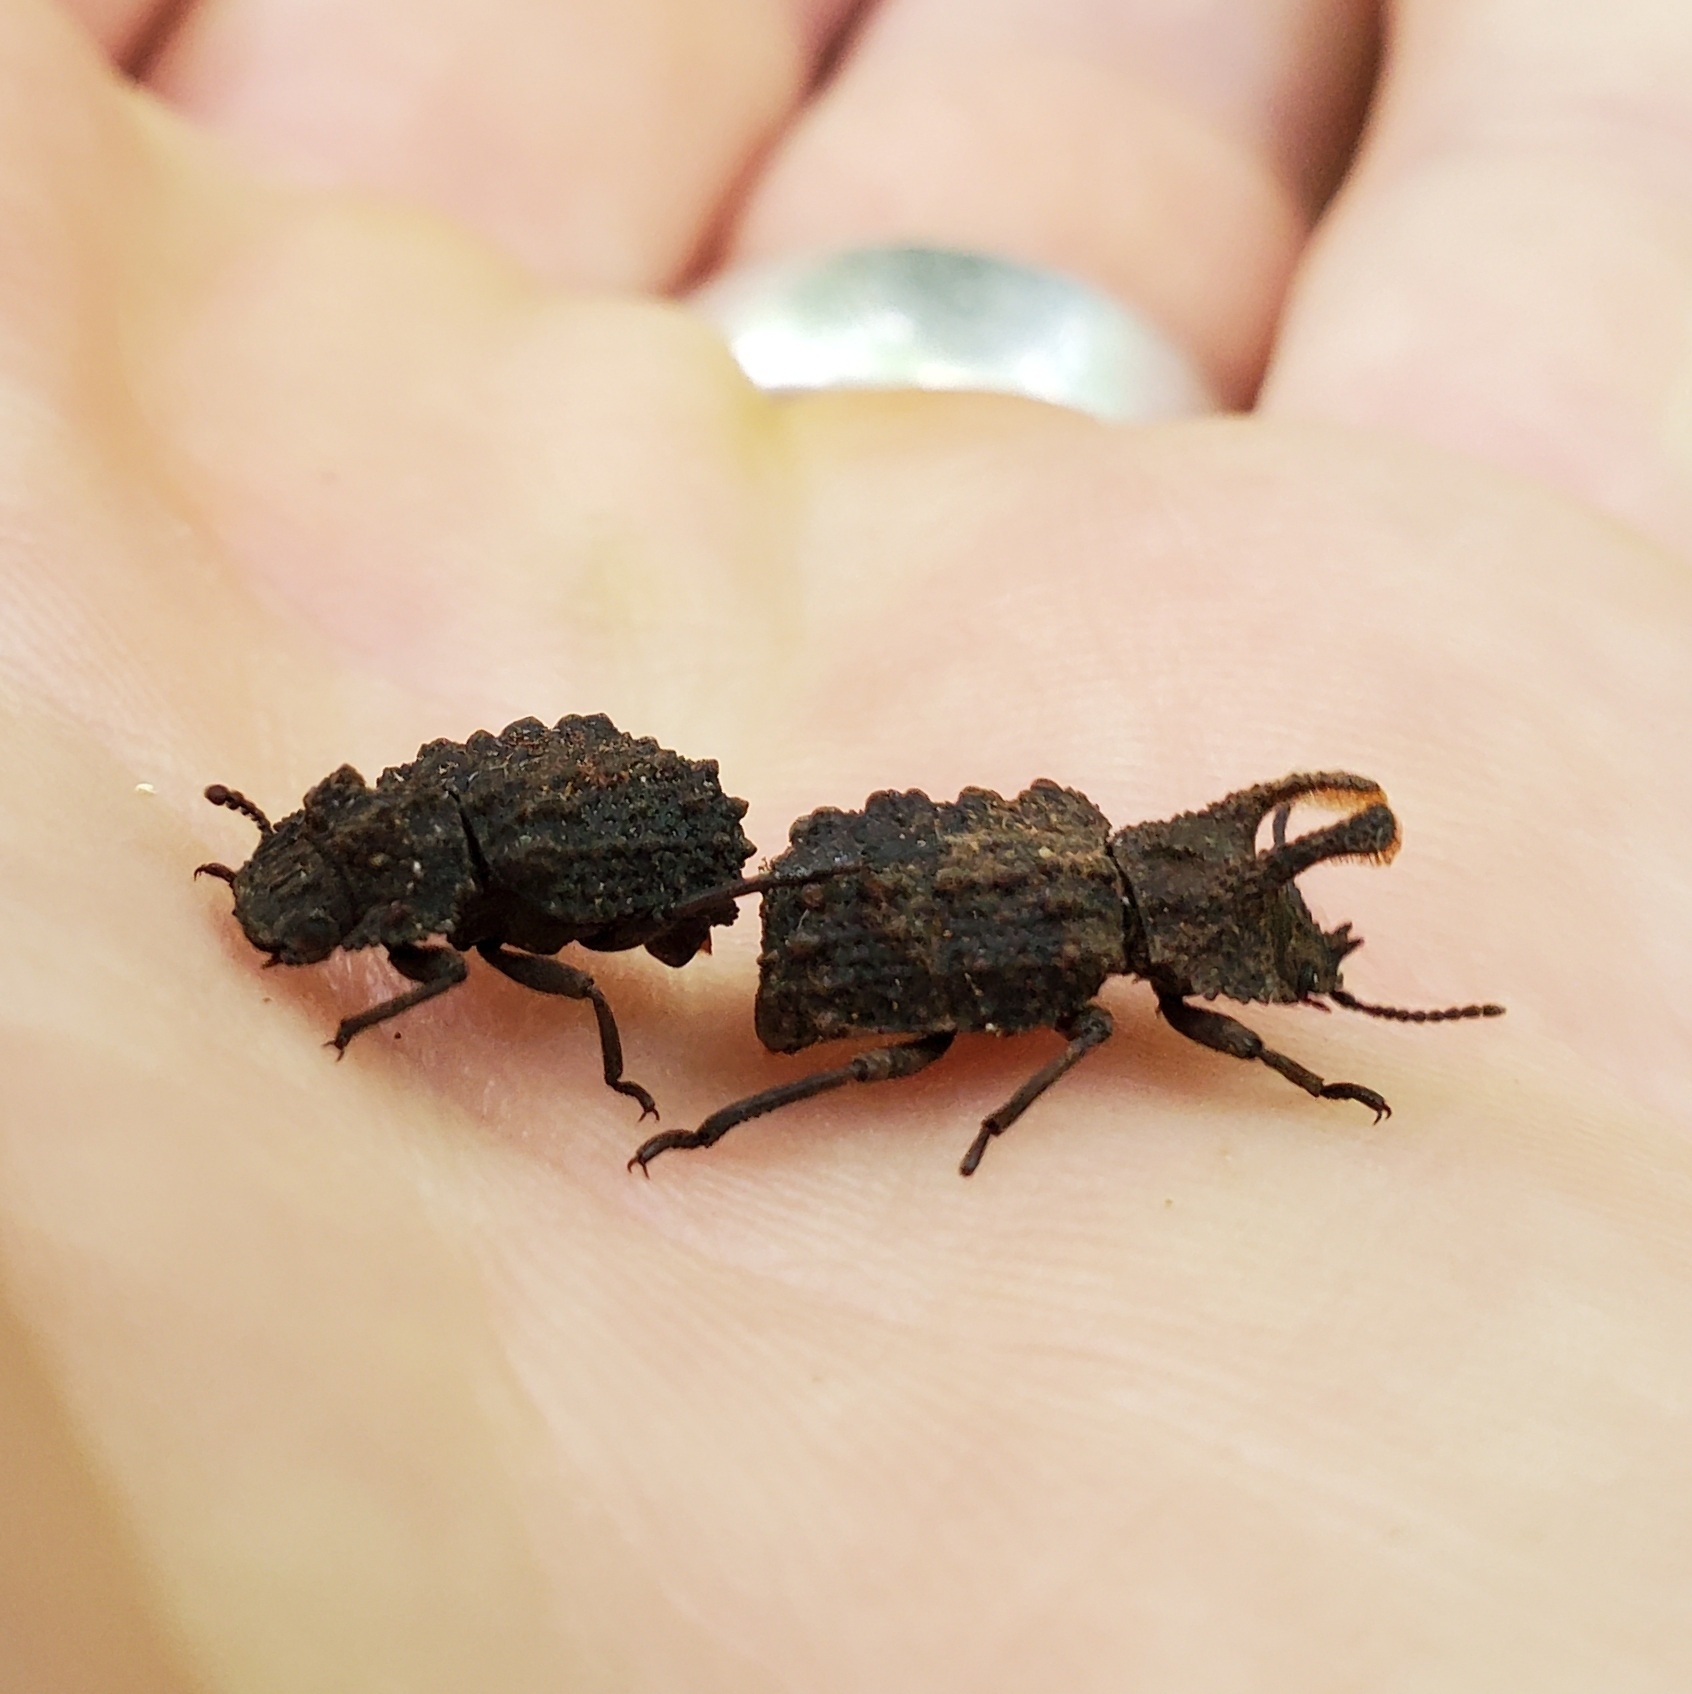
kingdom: Animalia
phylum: Arthropoda
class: Insecta
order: Coleoptera
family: Tenebrionidae
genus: Gnatocerus
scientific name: Gnatocerus cornutus
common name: Broad-horned flour beetle
